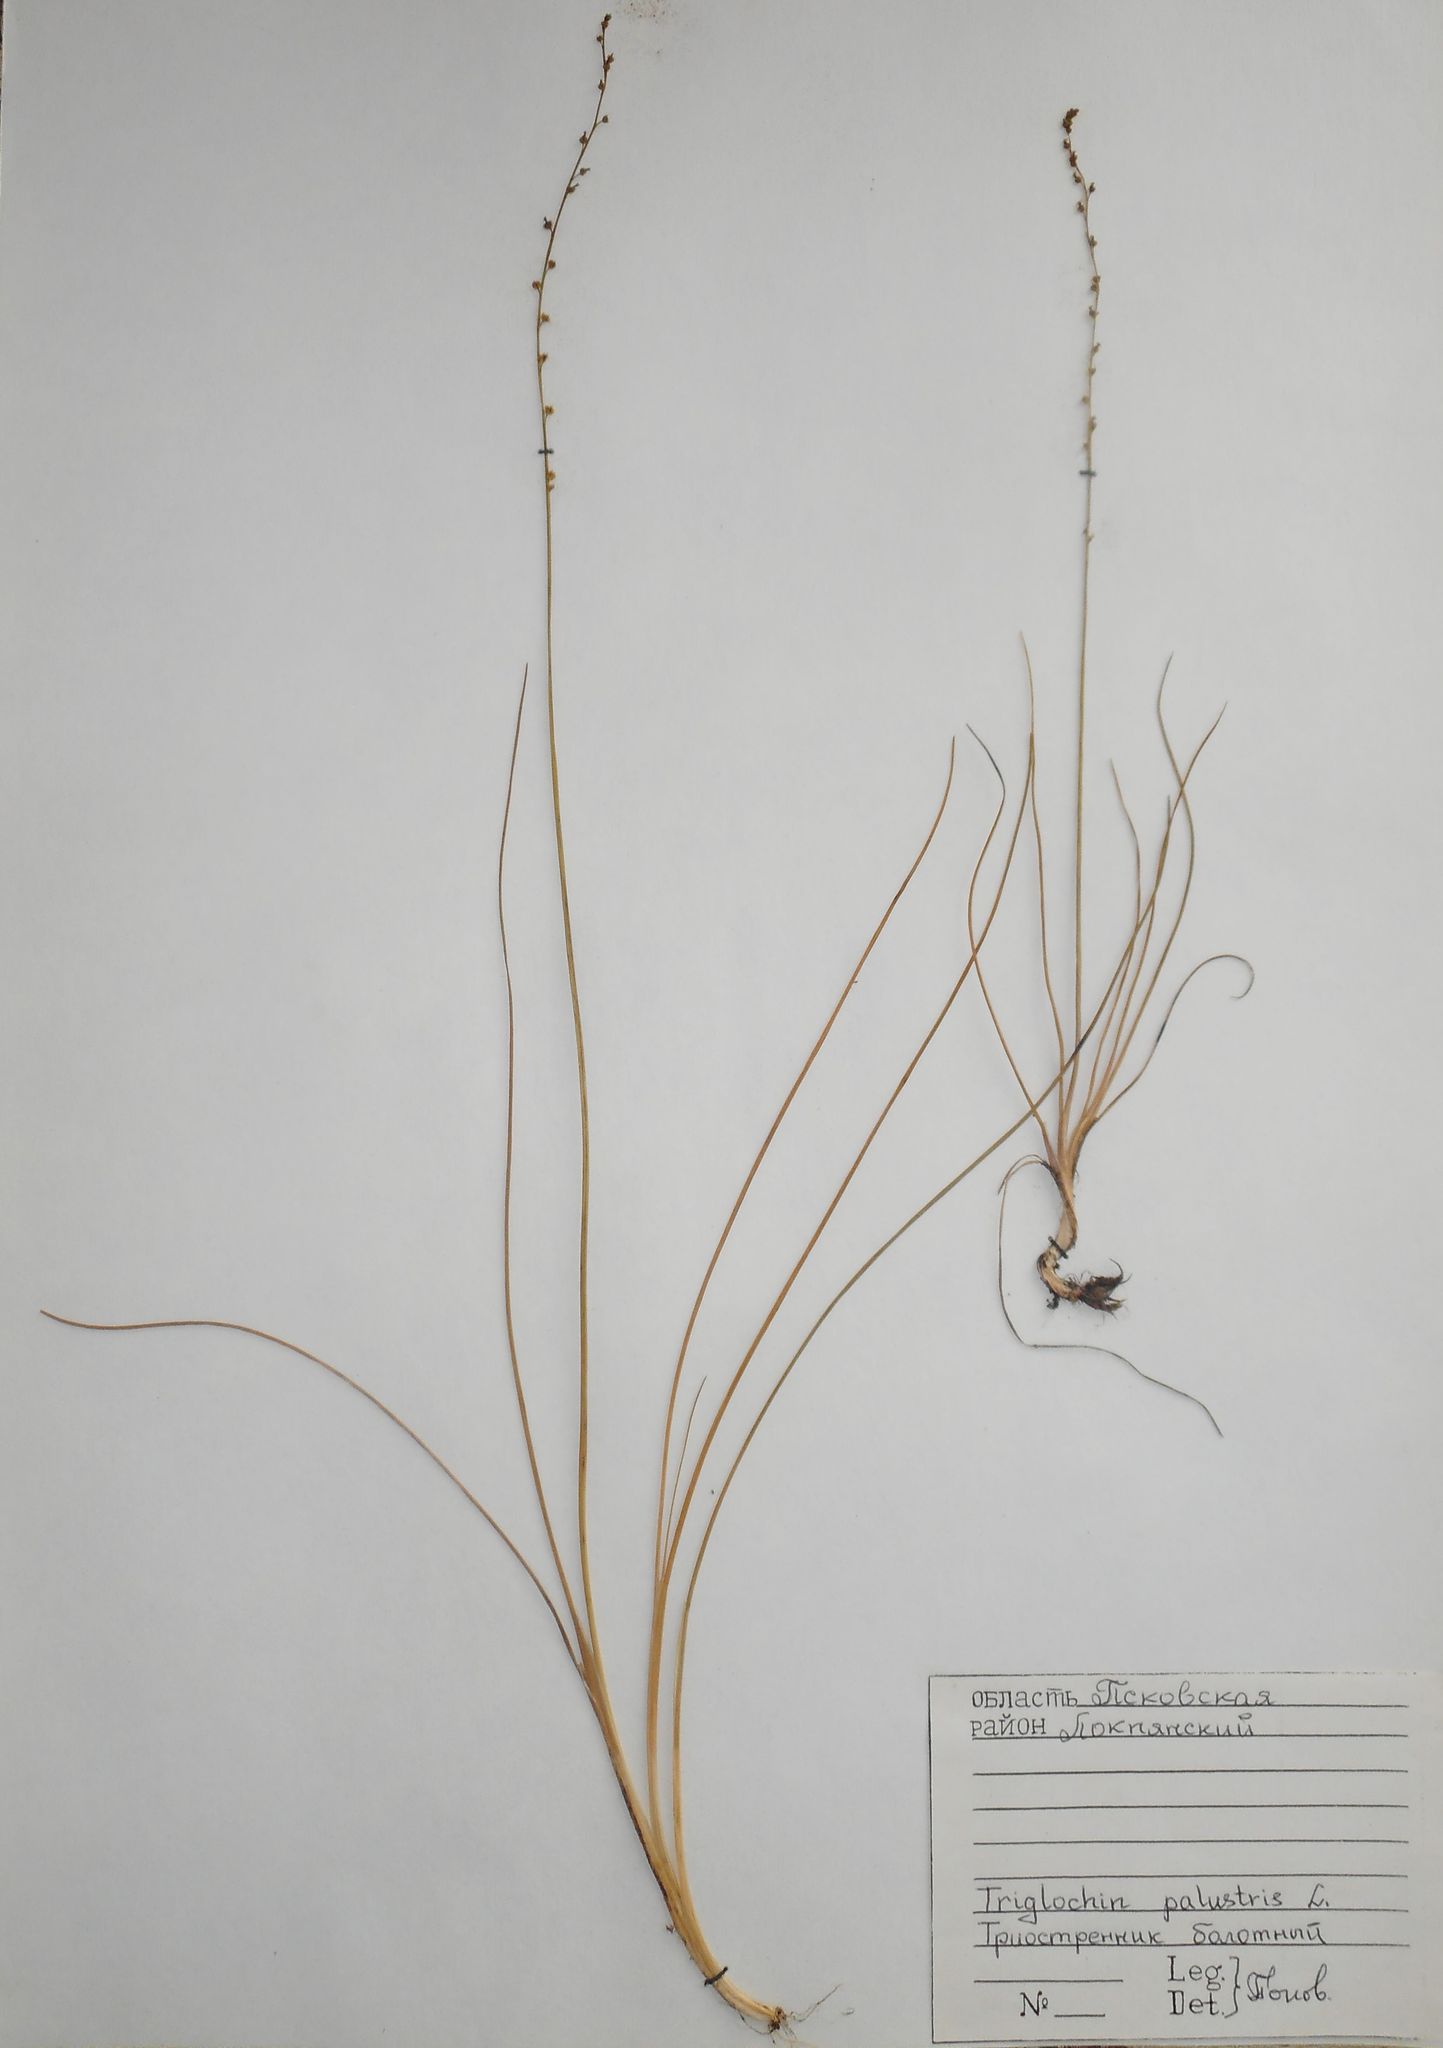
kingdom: Plantae
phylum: Tracheophyta
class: Liliopsida
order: Alismatales
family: Juncaginaceae
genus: Triglochin
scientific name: Triglochin palustris
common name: Marsh arrowgrass
